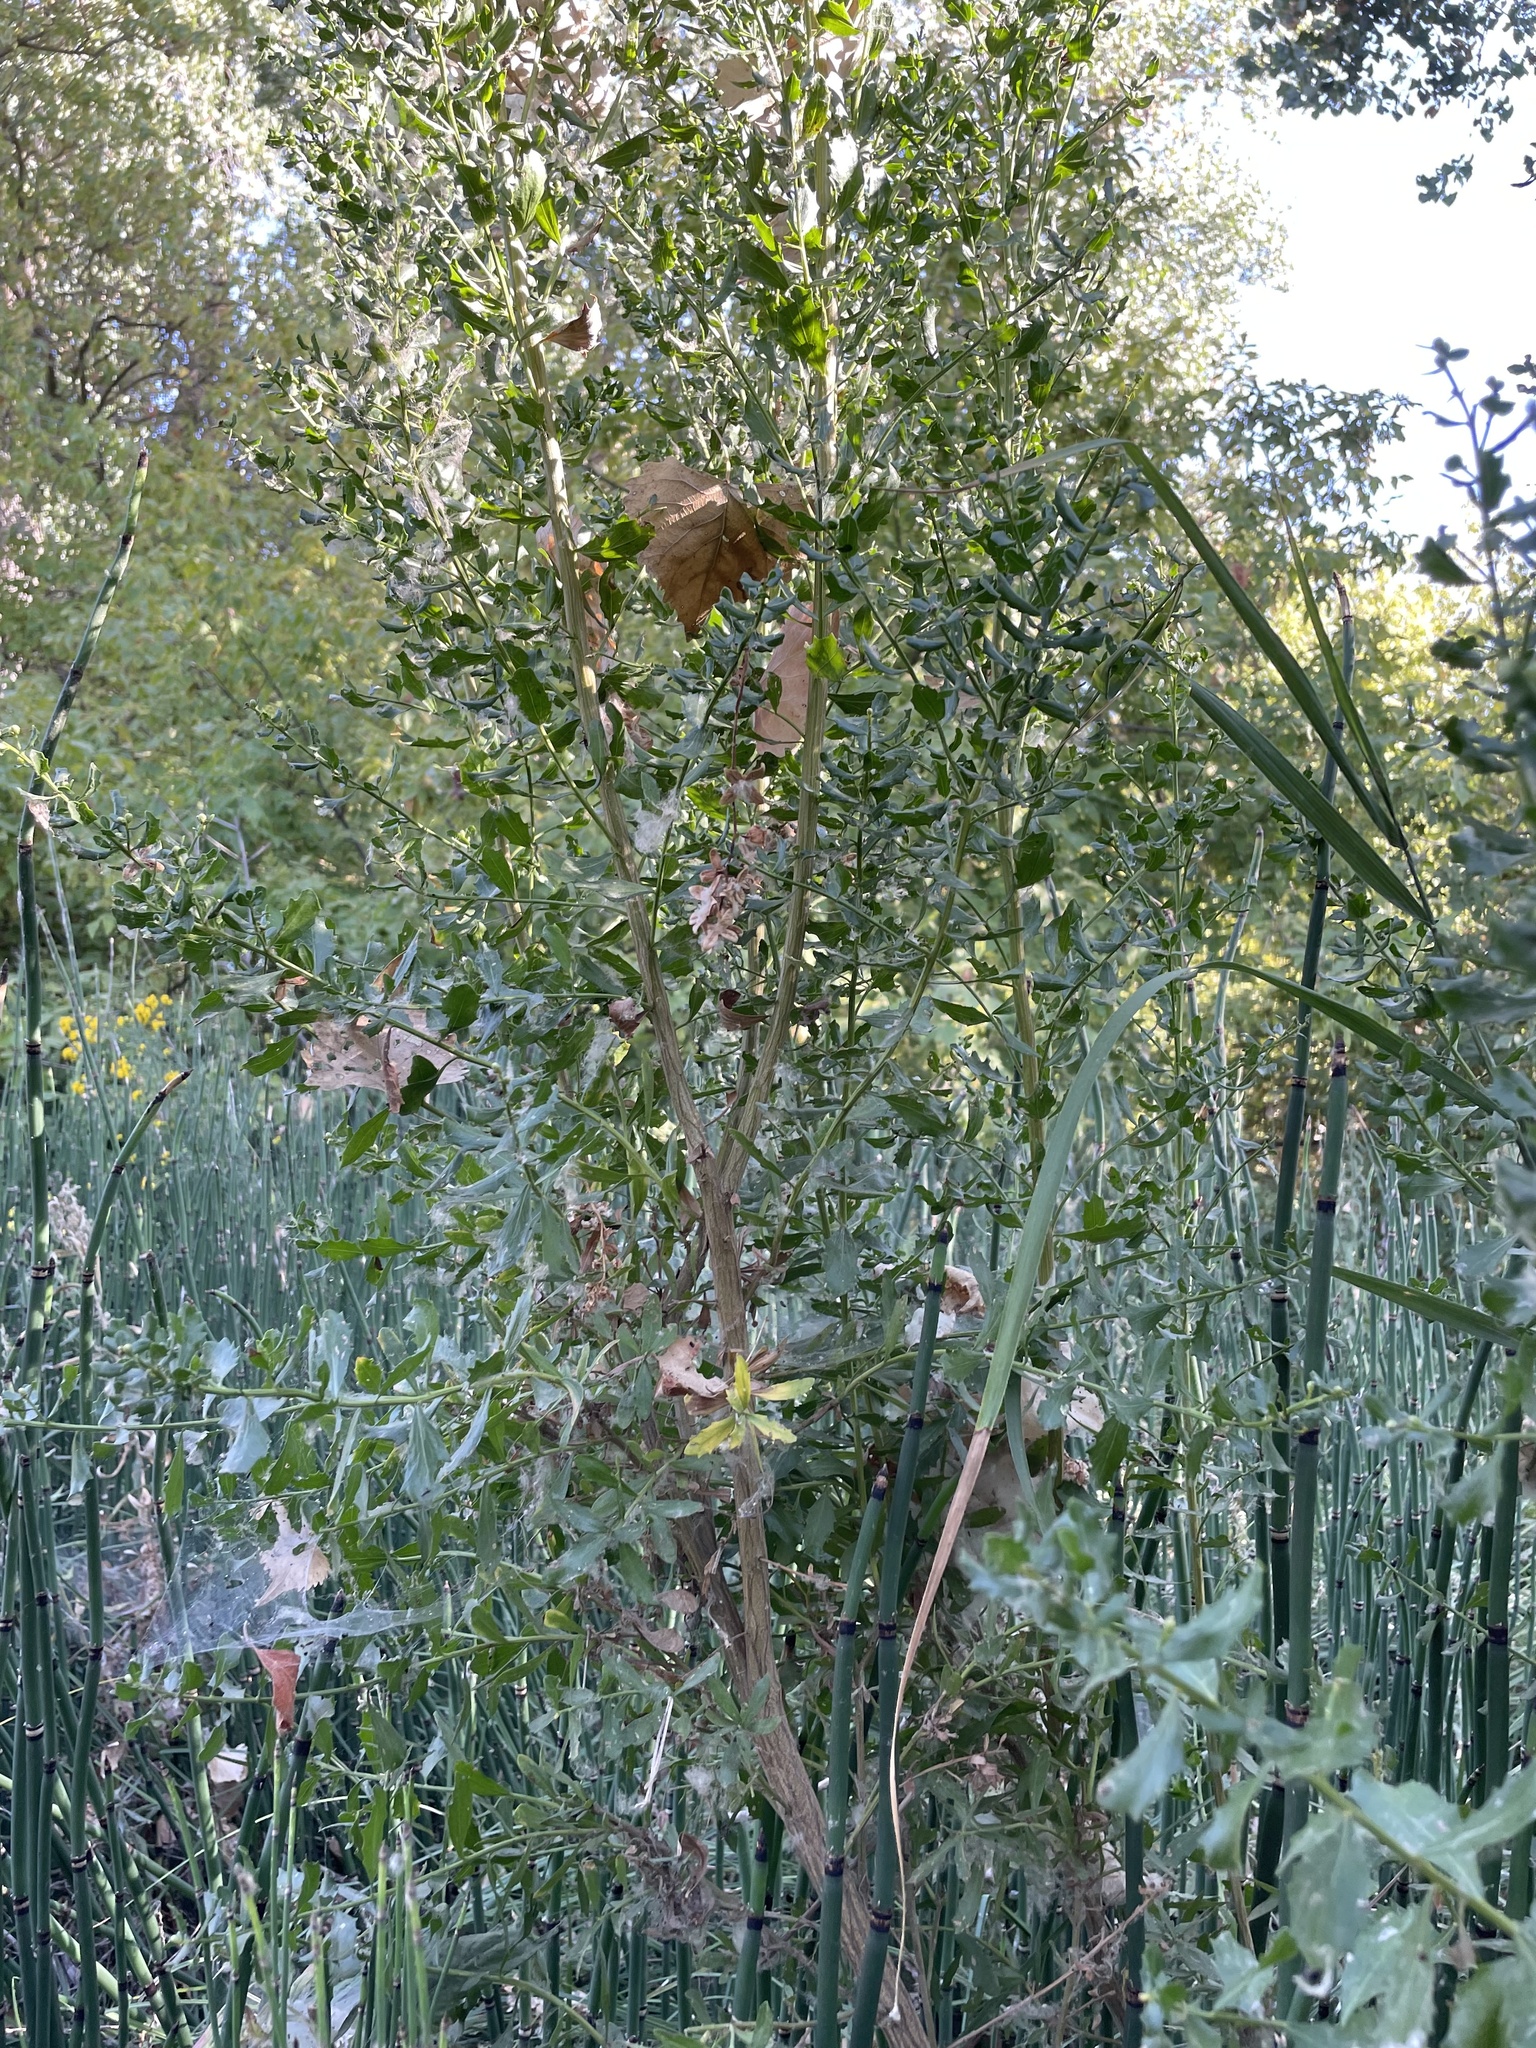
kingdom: Plantae
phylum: Tracheophyta
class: Magnoliopsida
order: Asterales
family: Asteraceae
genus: Baccharis
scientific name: Baccharis pilularis
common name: Coyotebrush
